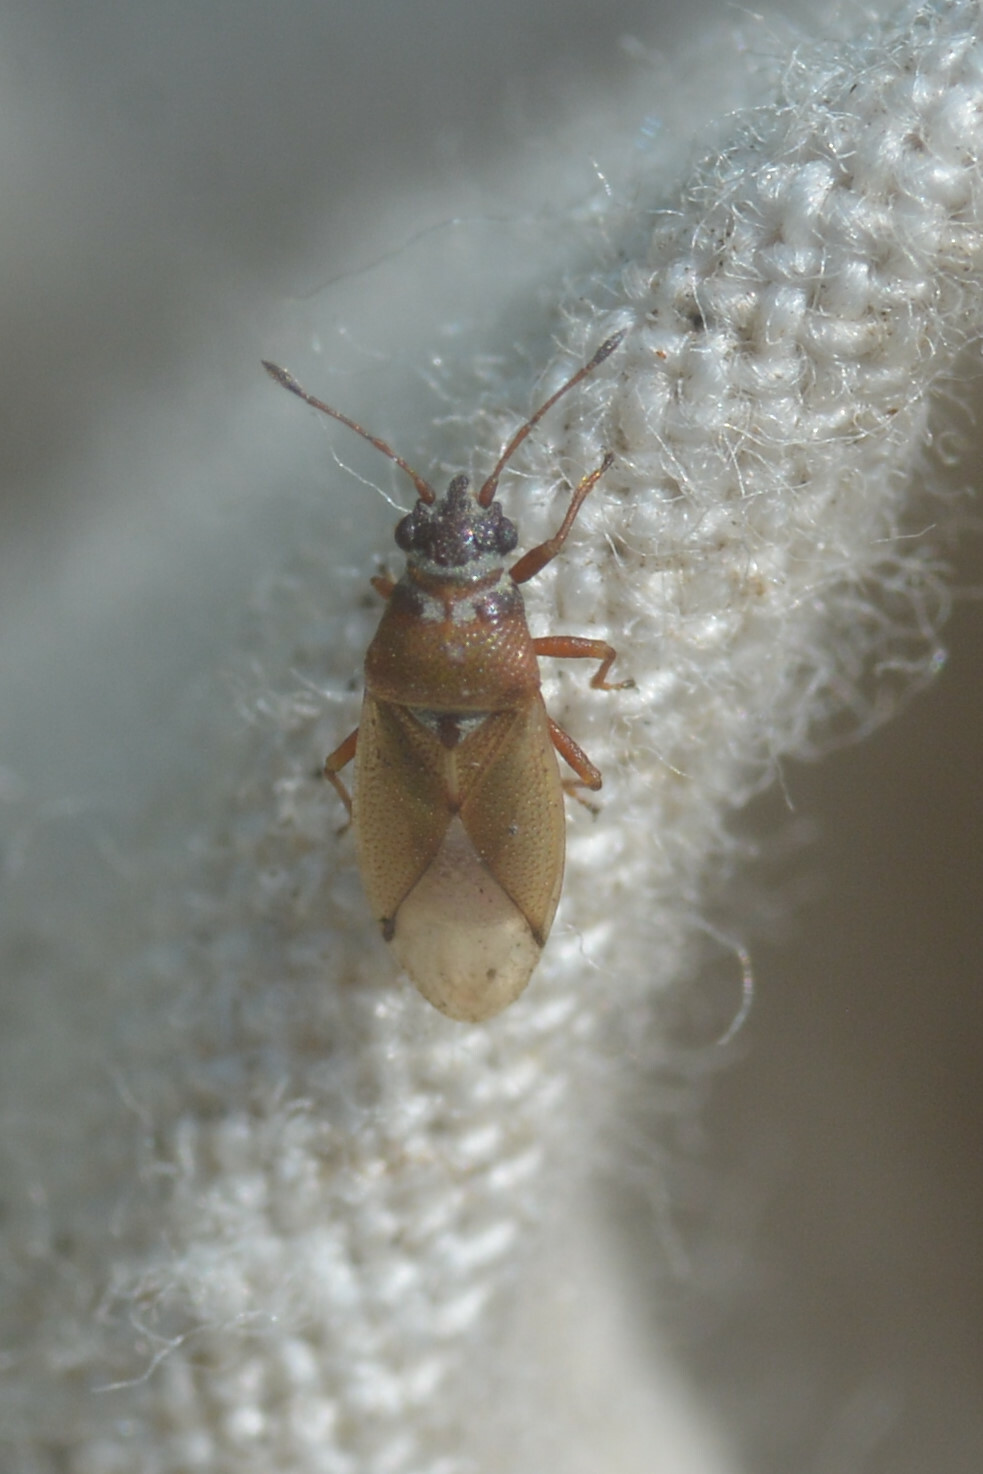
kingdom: Animalia
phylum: Arthropoda
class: Insecta
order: Hemiptera
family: Cymidae
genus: Cymus
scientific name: Cymus melanocephalus
